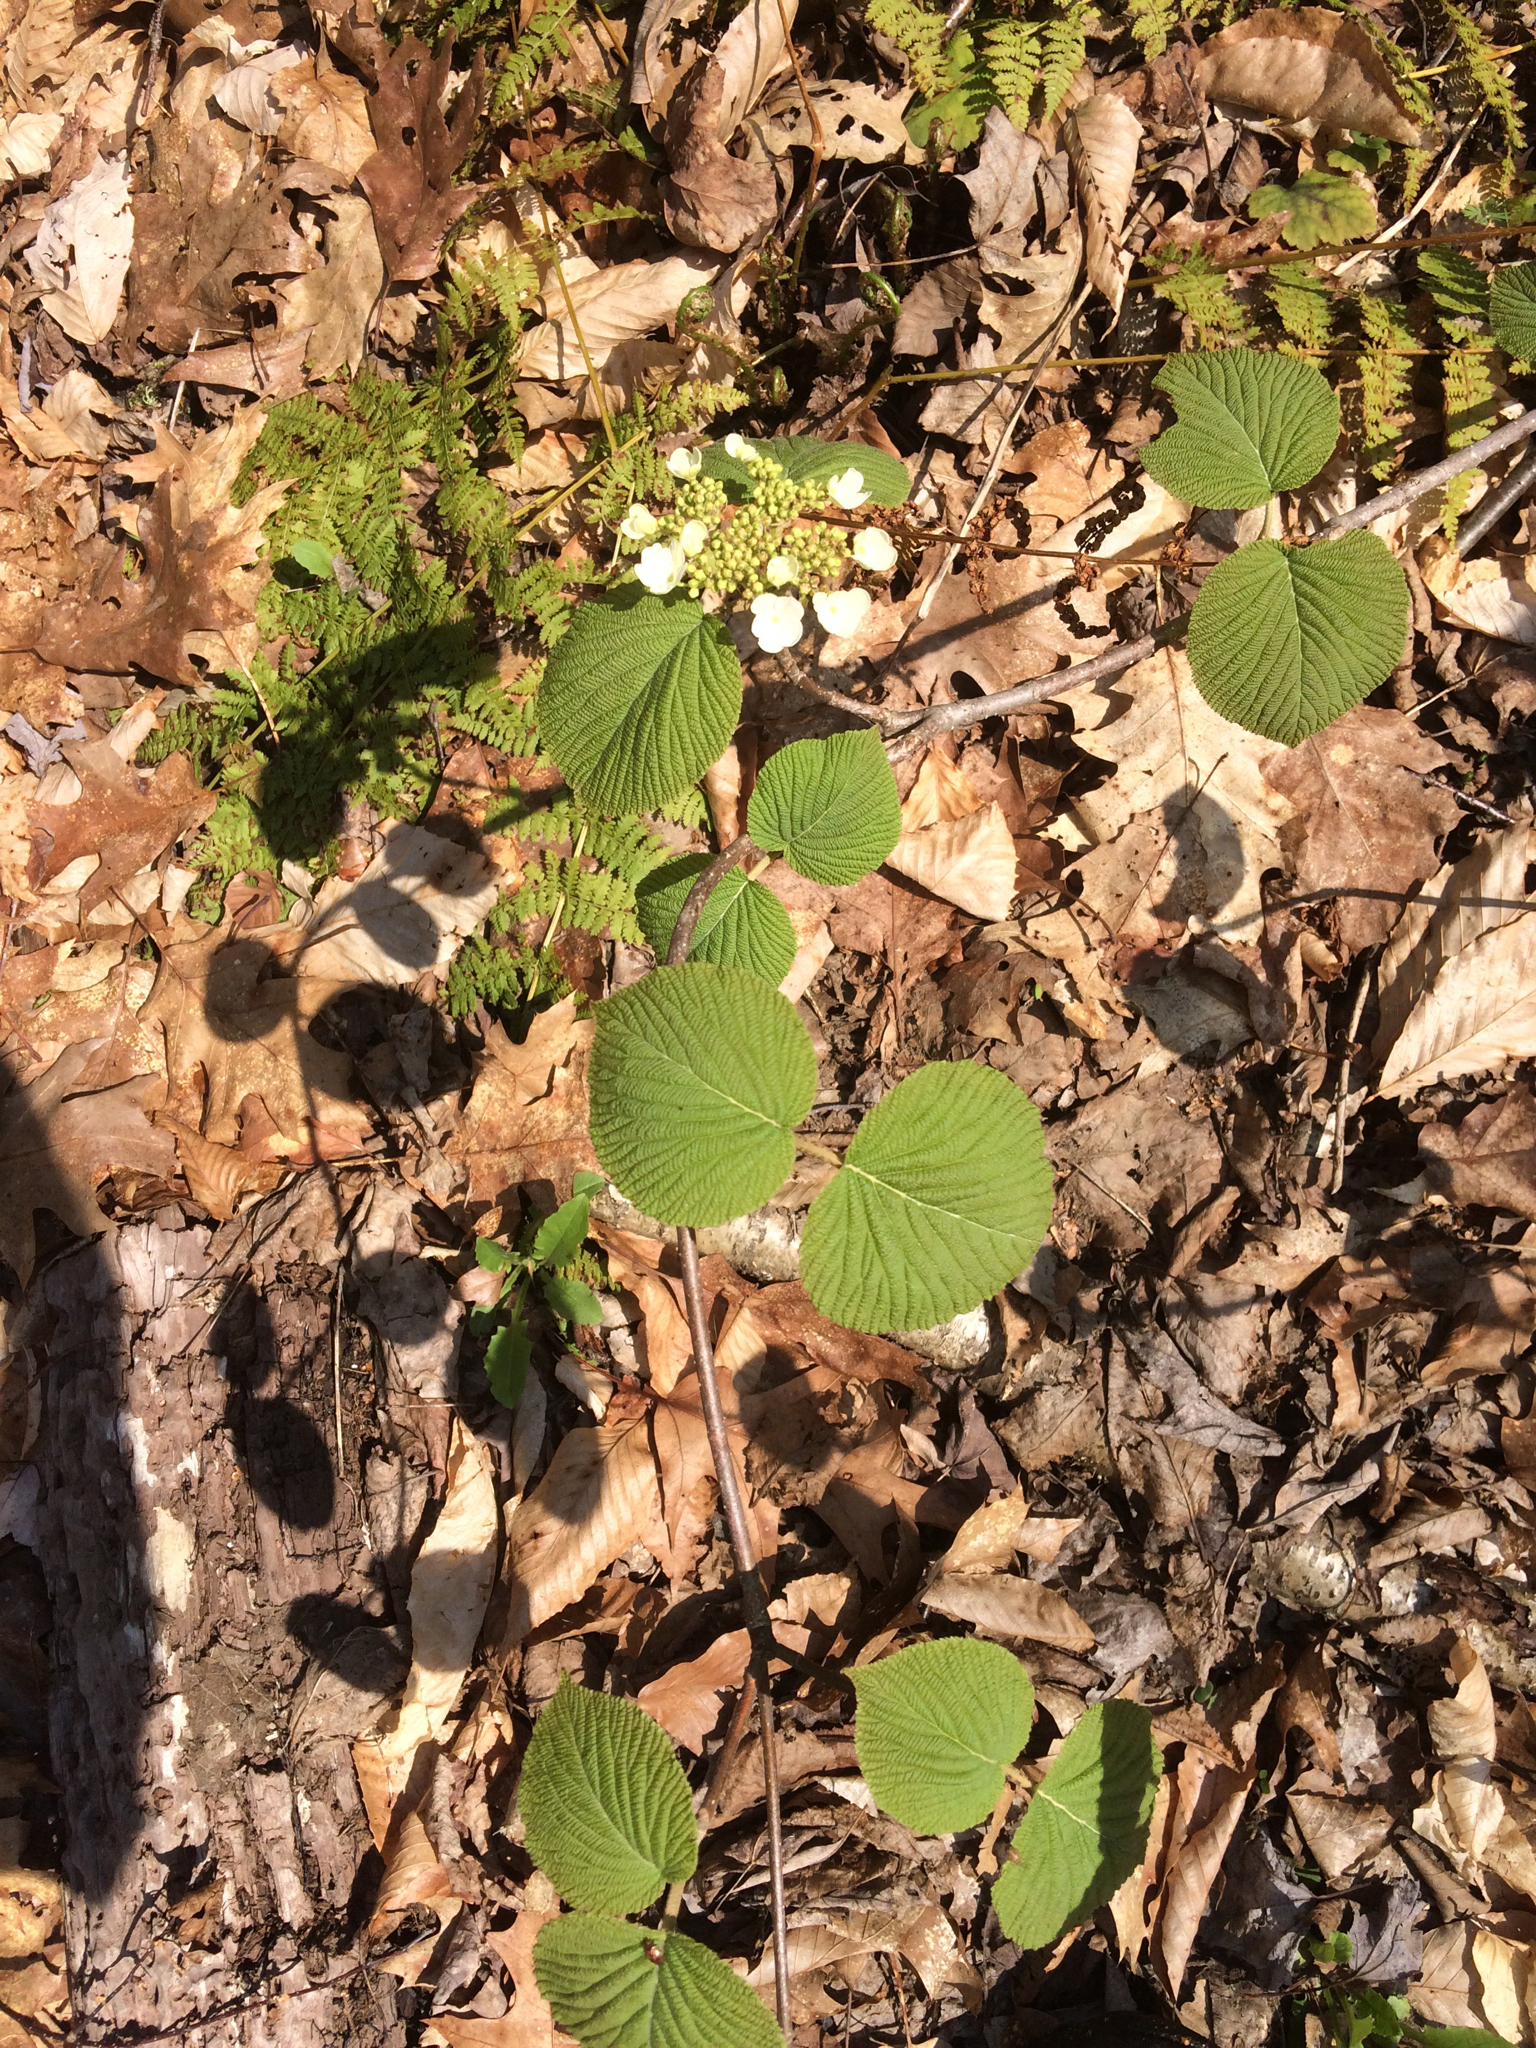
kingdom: Plantae
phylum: Tracheophyta
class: Magnoliopsida
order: Dipsacales
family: Viburnaceae
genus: Viburnum
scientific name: Viburnum lantanoides
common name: Hobblebush
